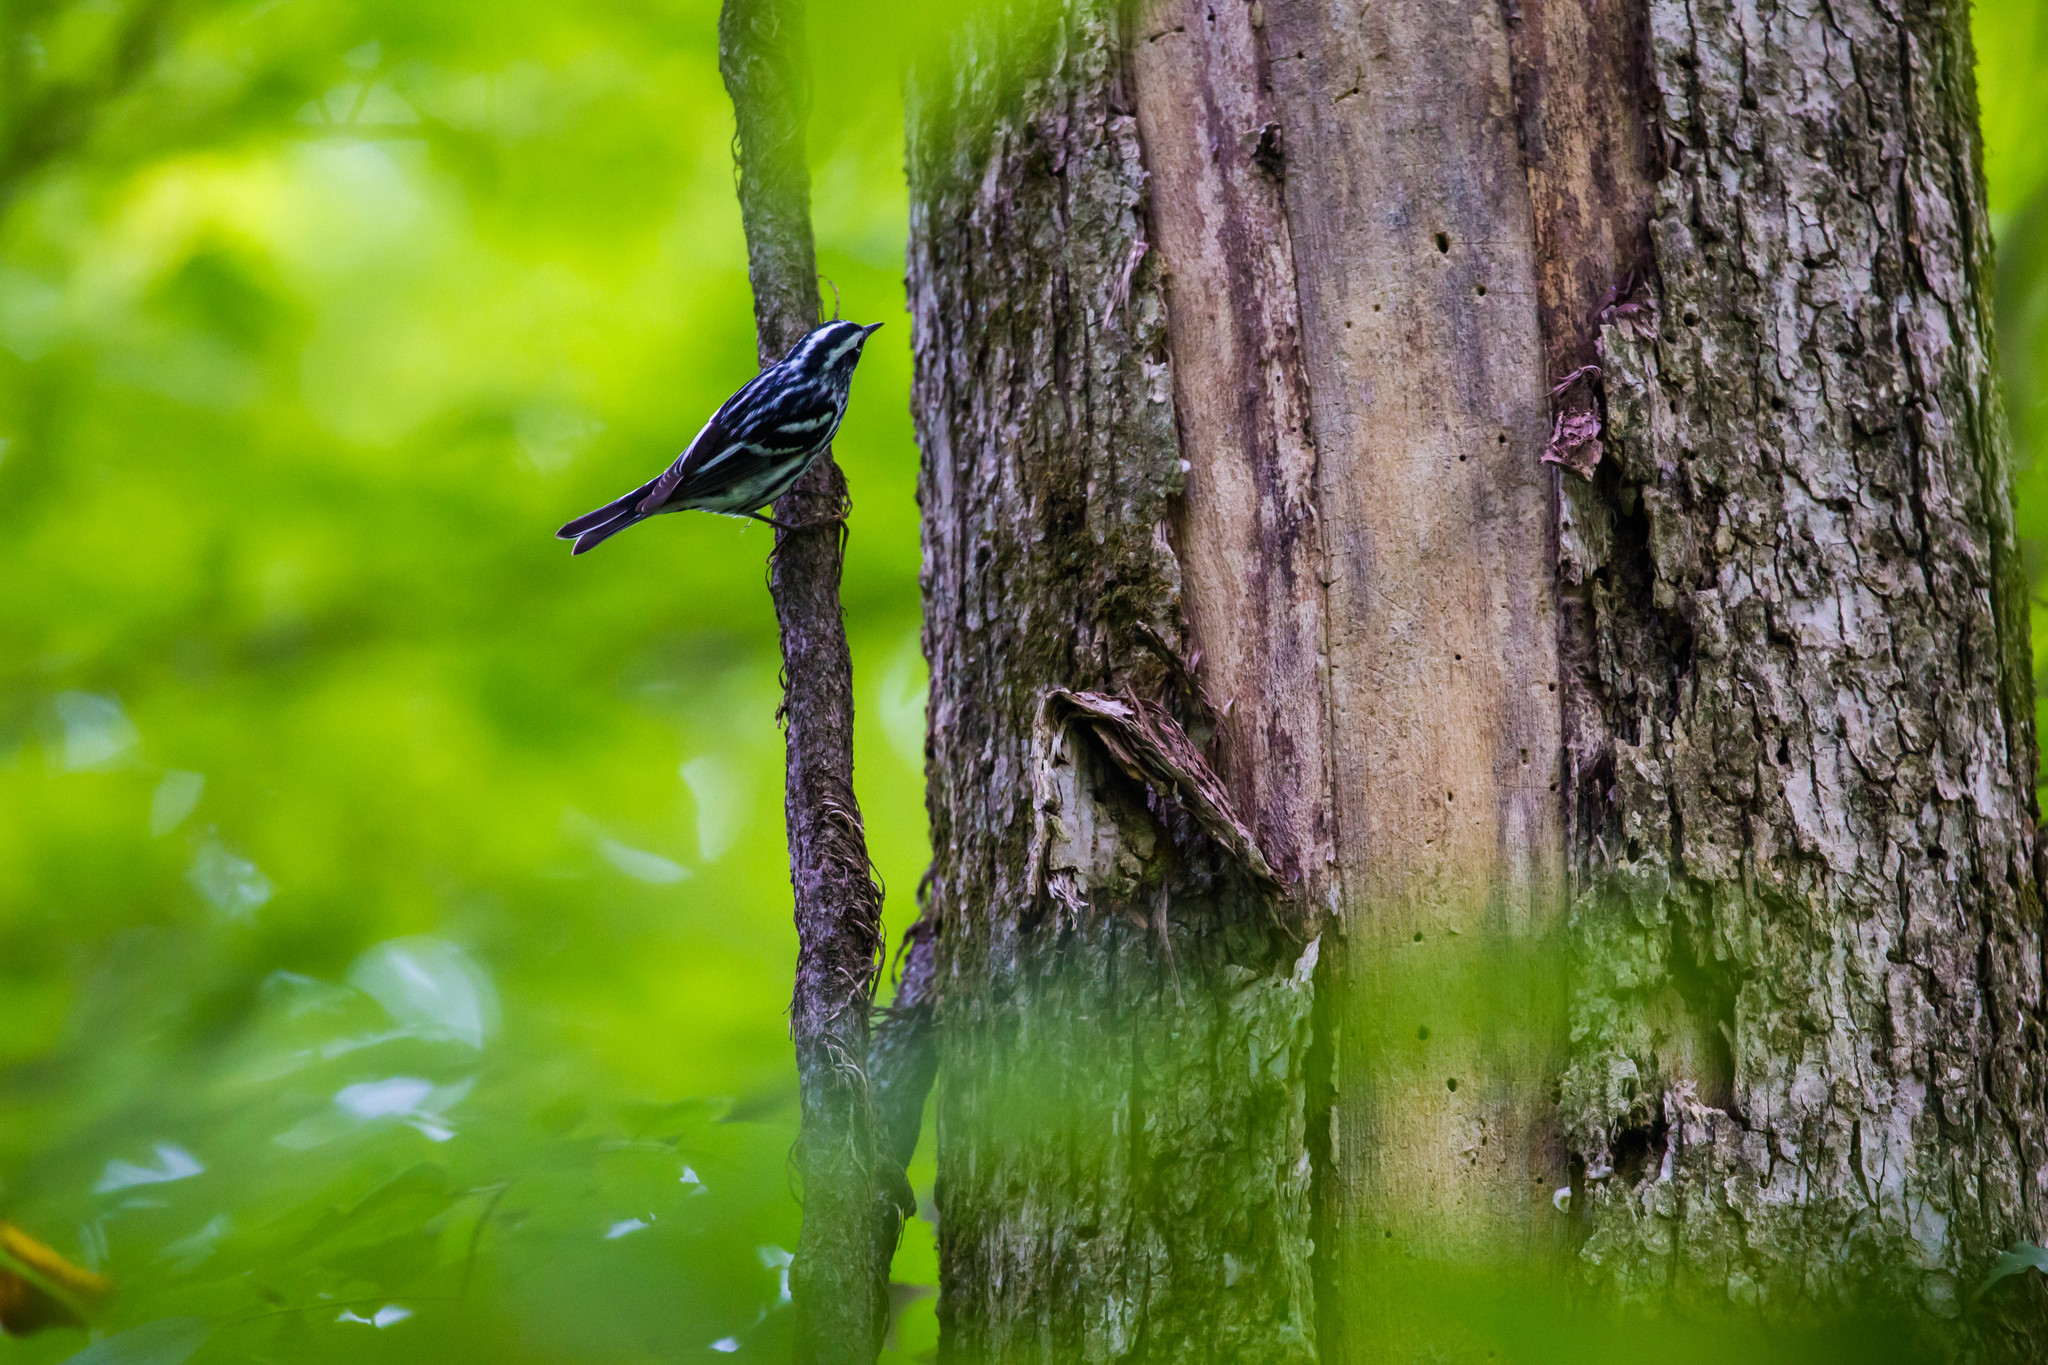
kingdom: Animalia
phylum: Chordata
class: Aves
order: Passeriformes
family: Parulidae
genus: Mniotilta
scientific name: Mniotilta varia
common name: Black-and-white warbler
